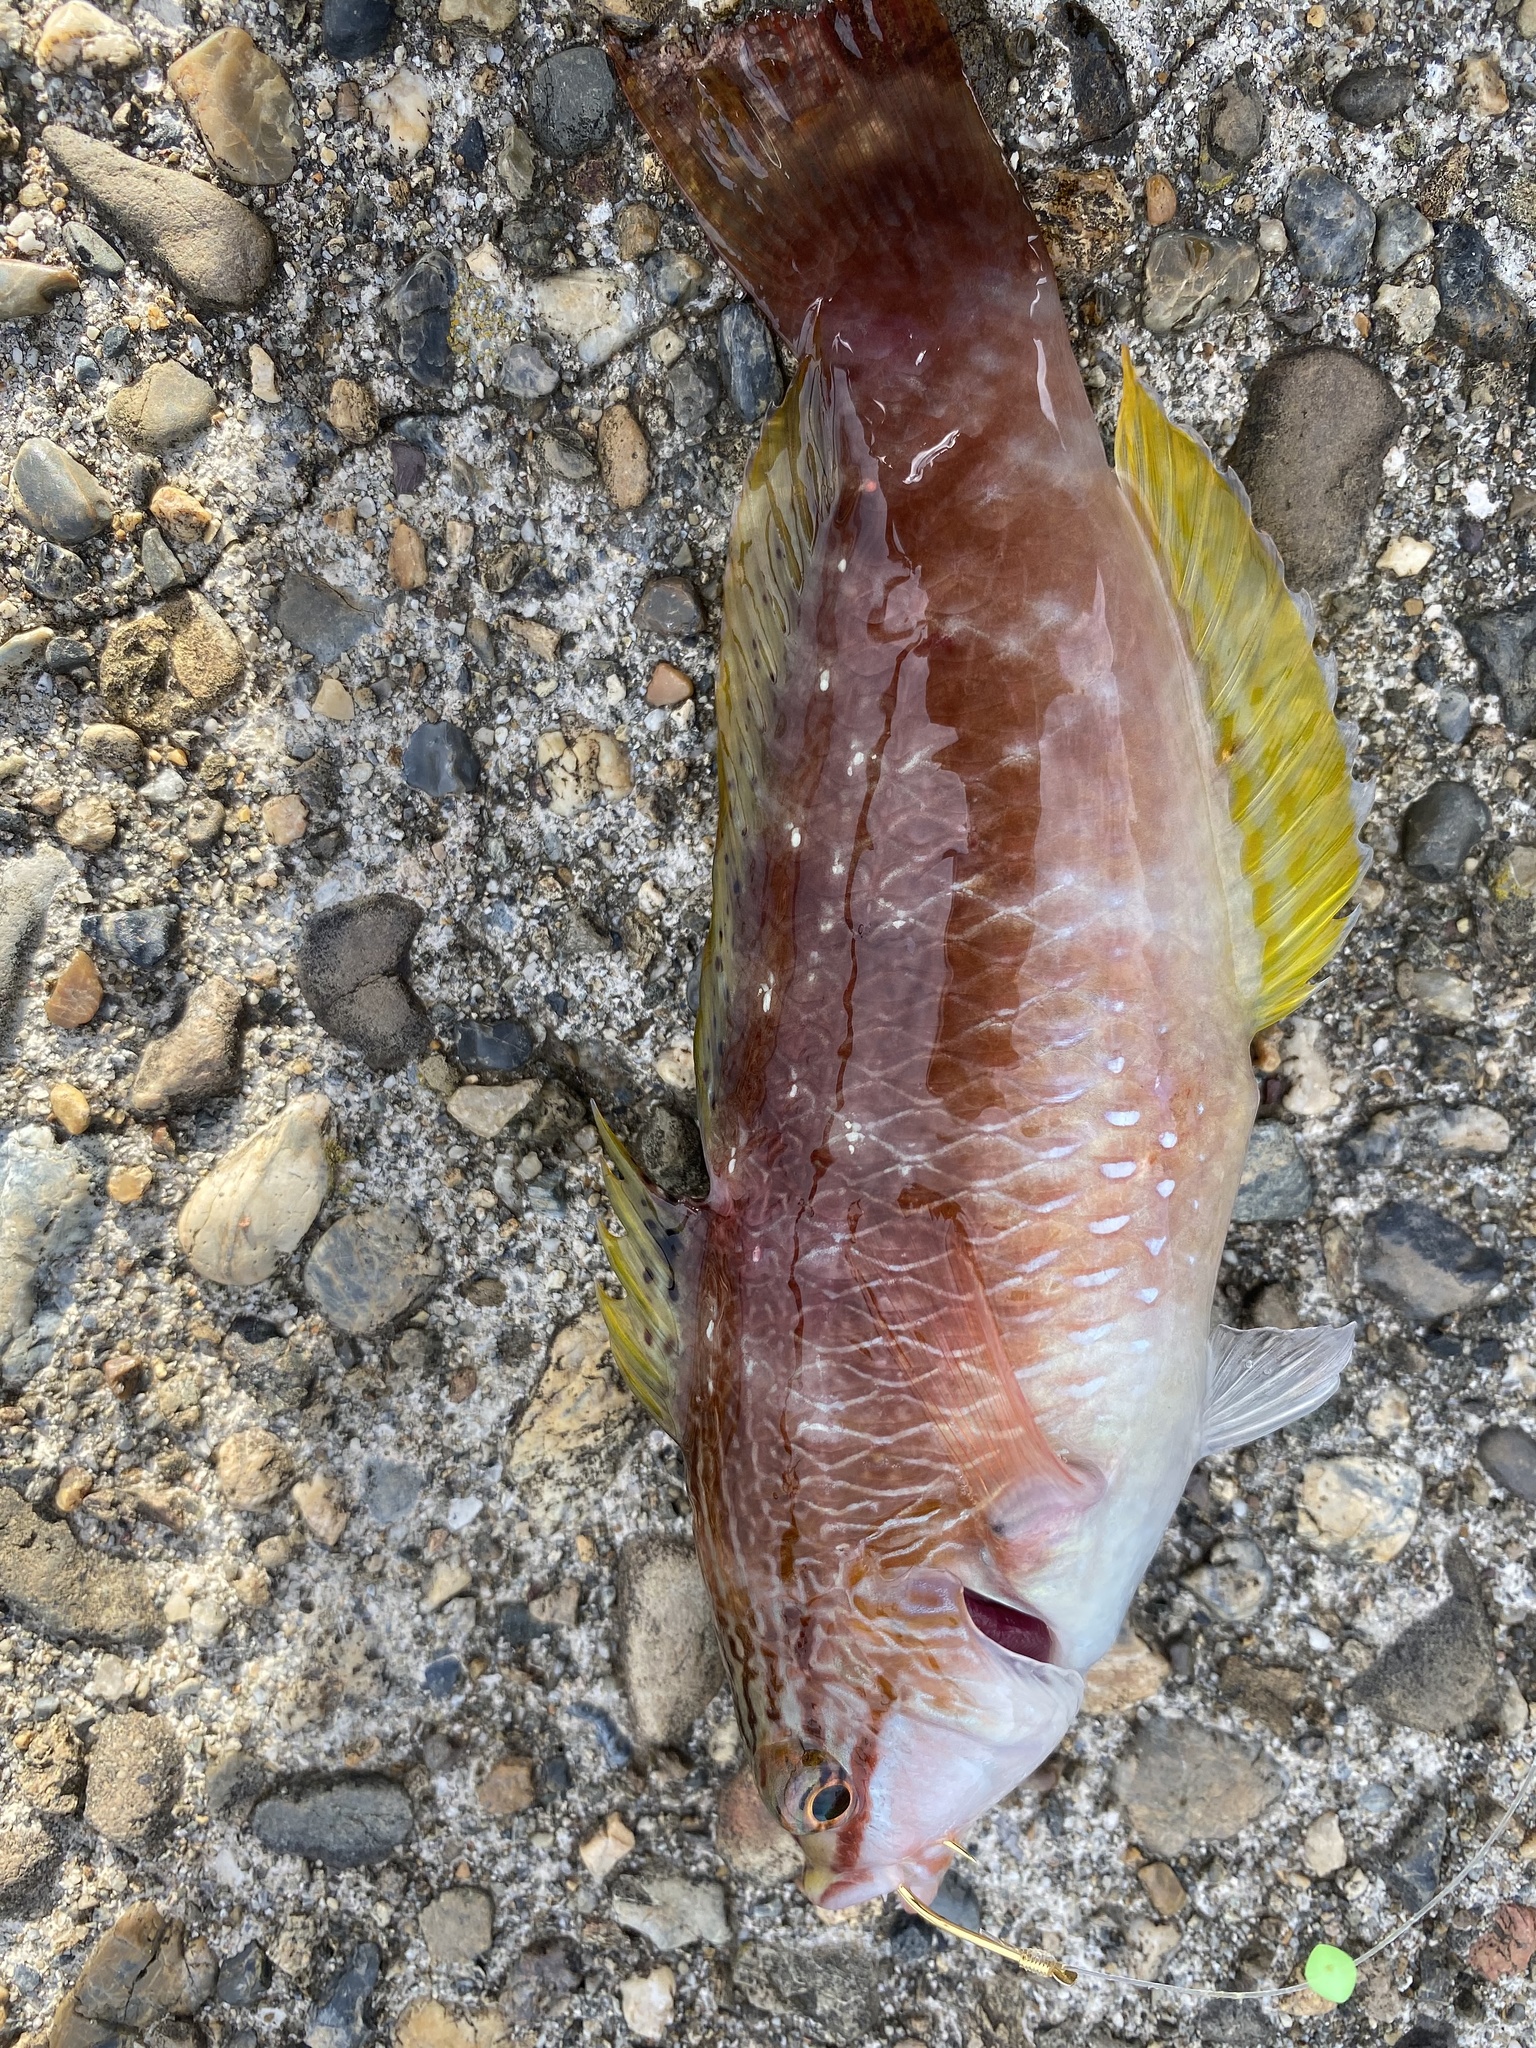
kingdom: Animalia
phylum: Chordata
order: Perciformes
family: Labridae
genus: Pseudolabrus
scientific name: Pseudolabrus sieboldi
